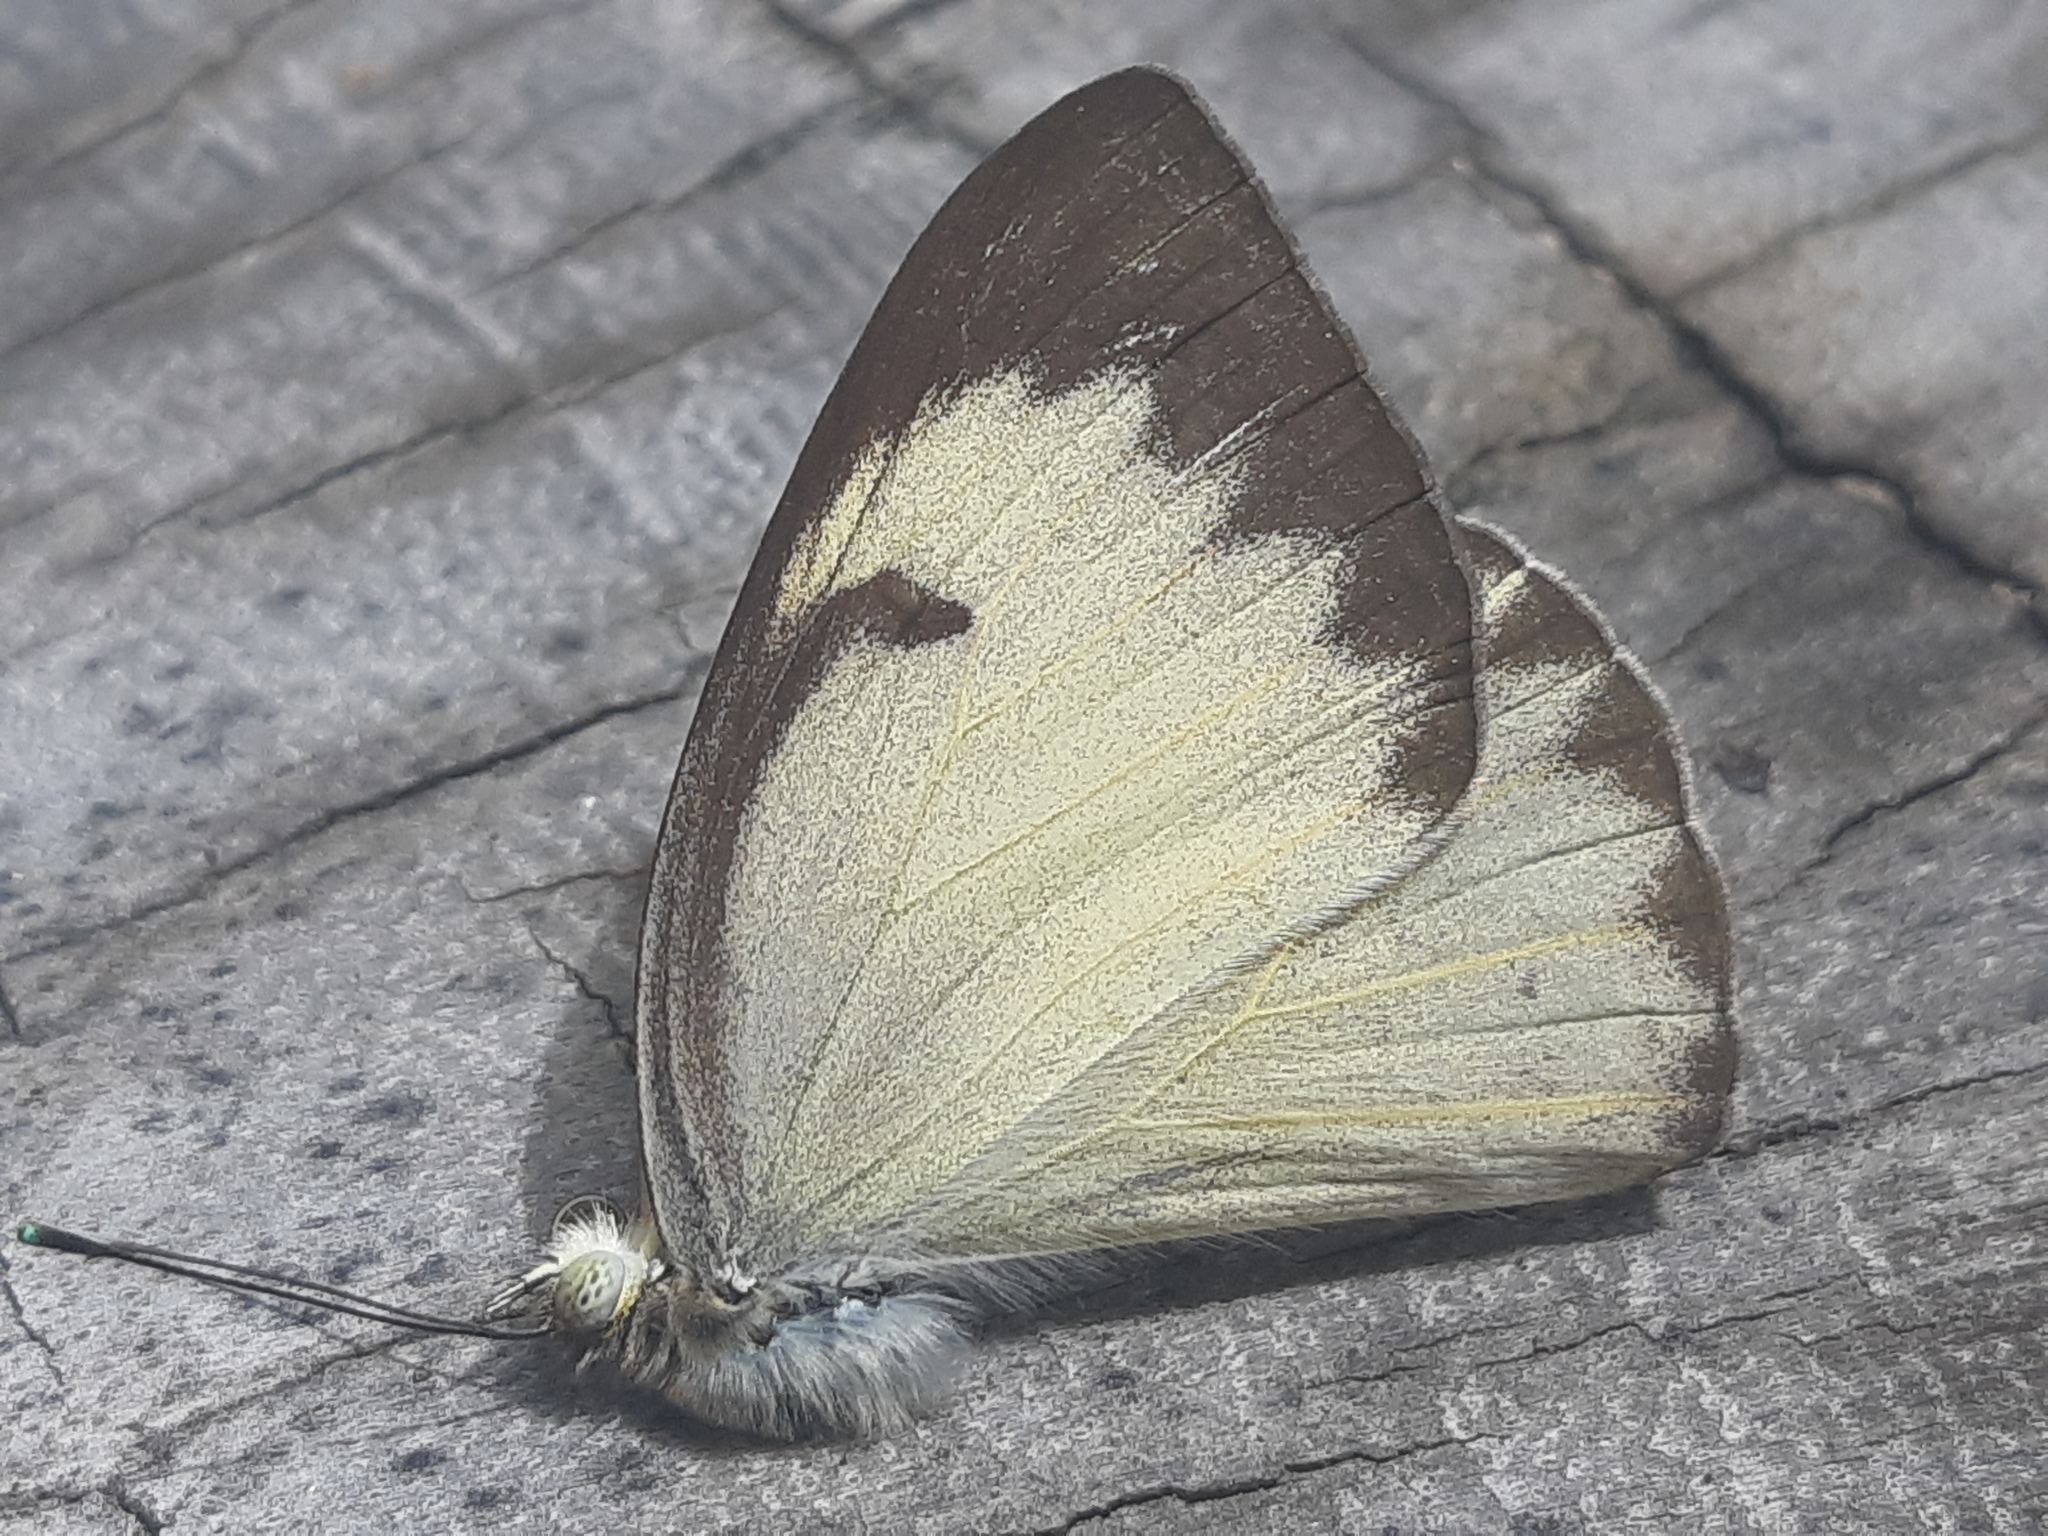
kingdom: Animalia
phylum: Arthropoda
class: Insecta
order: Lepidoptera
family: Pieridae
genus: Ascia
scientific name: Ascia monuste
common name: Great southern white
